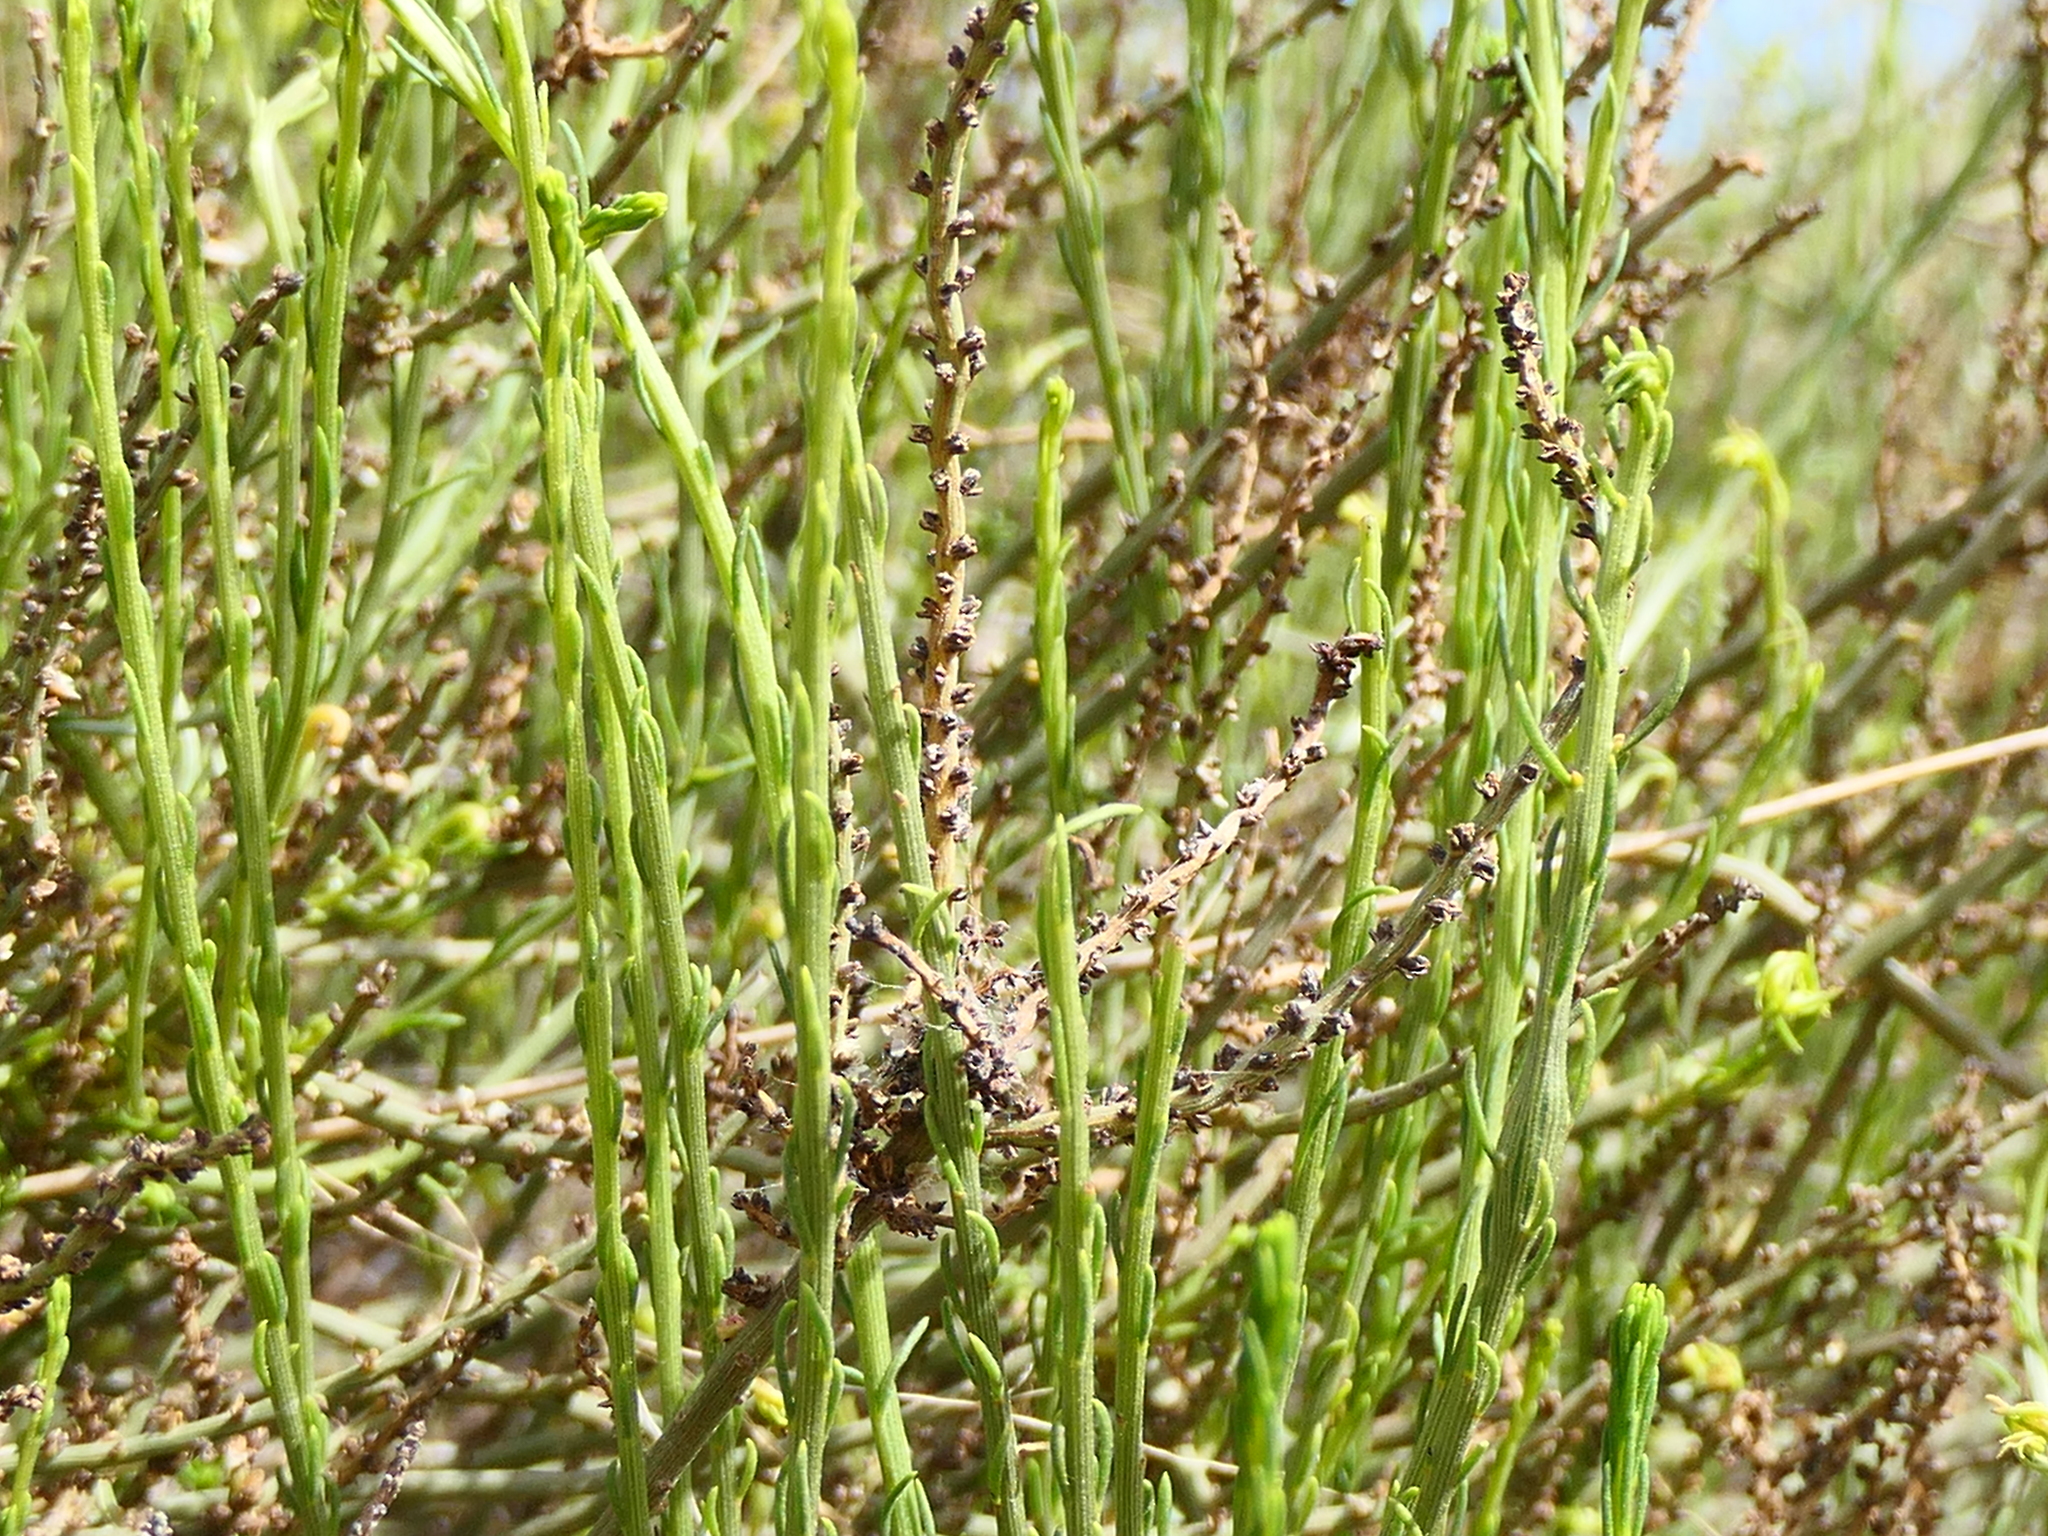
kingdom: Plantae
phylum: Tracheophyta
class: Magnoliopsida
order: Caryophyllales
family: Amaranthaceae
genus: Caroxylon
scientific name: Caroxylon genistoides
